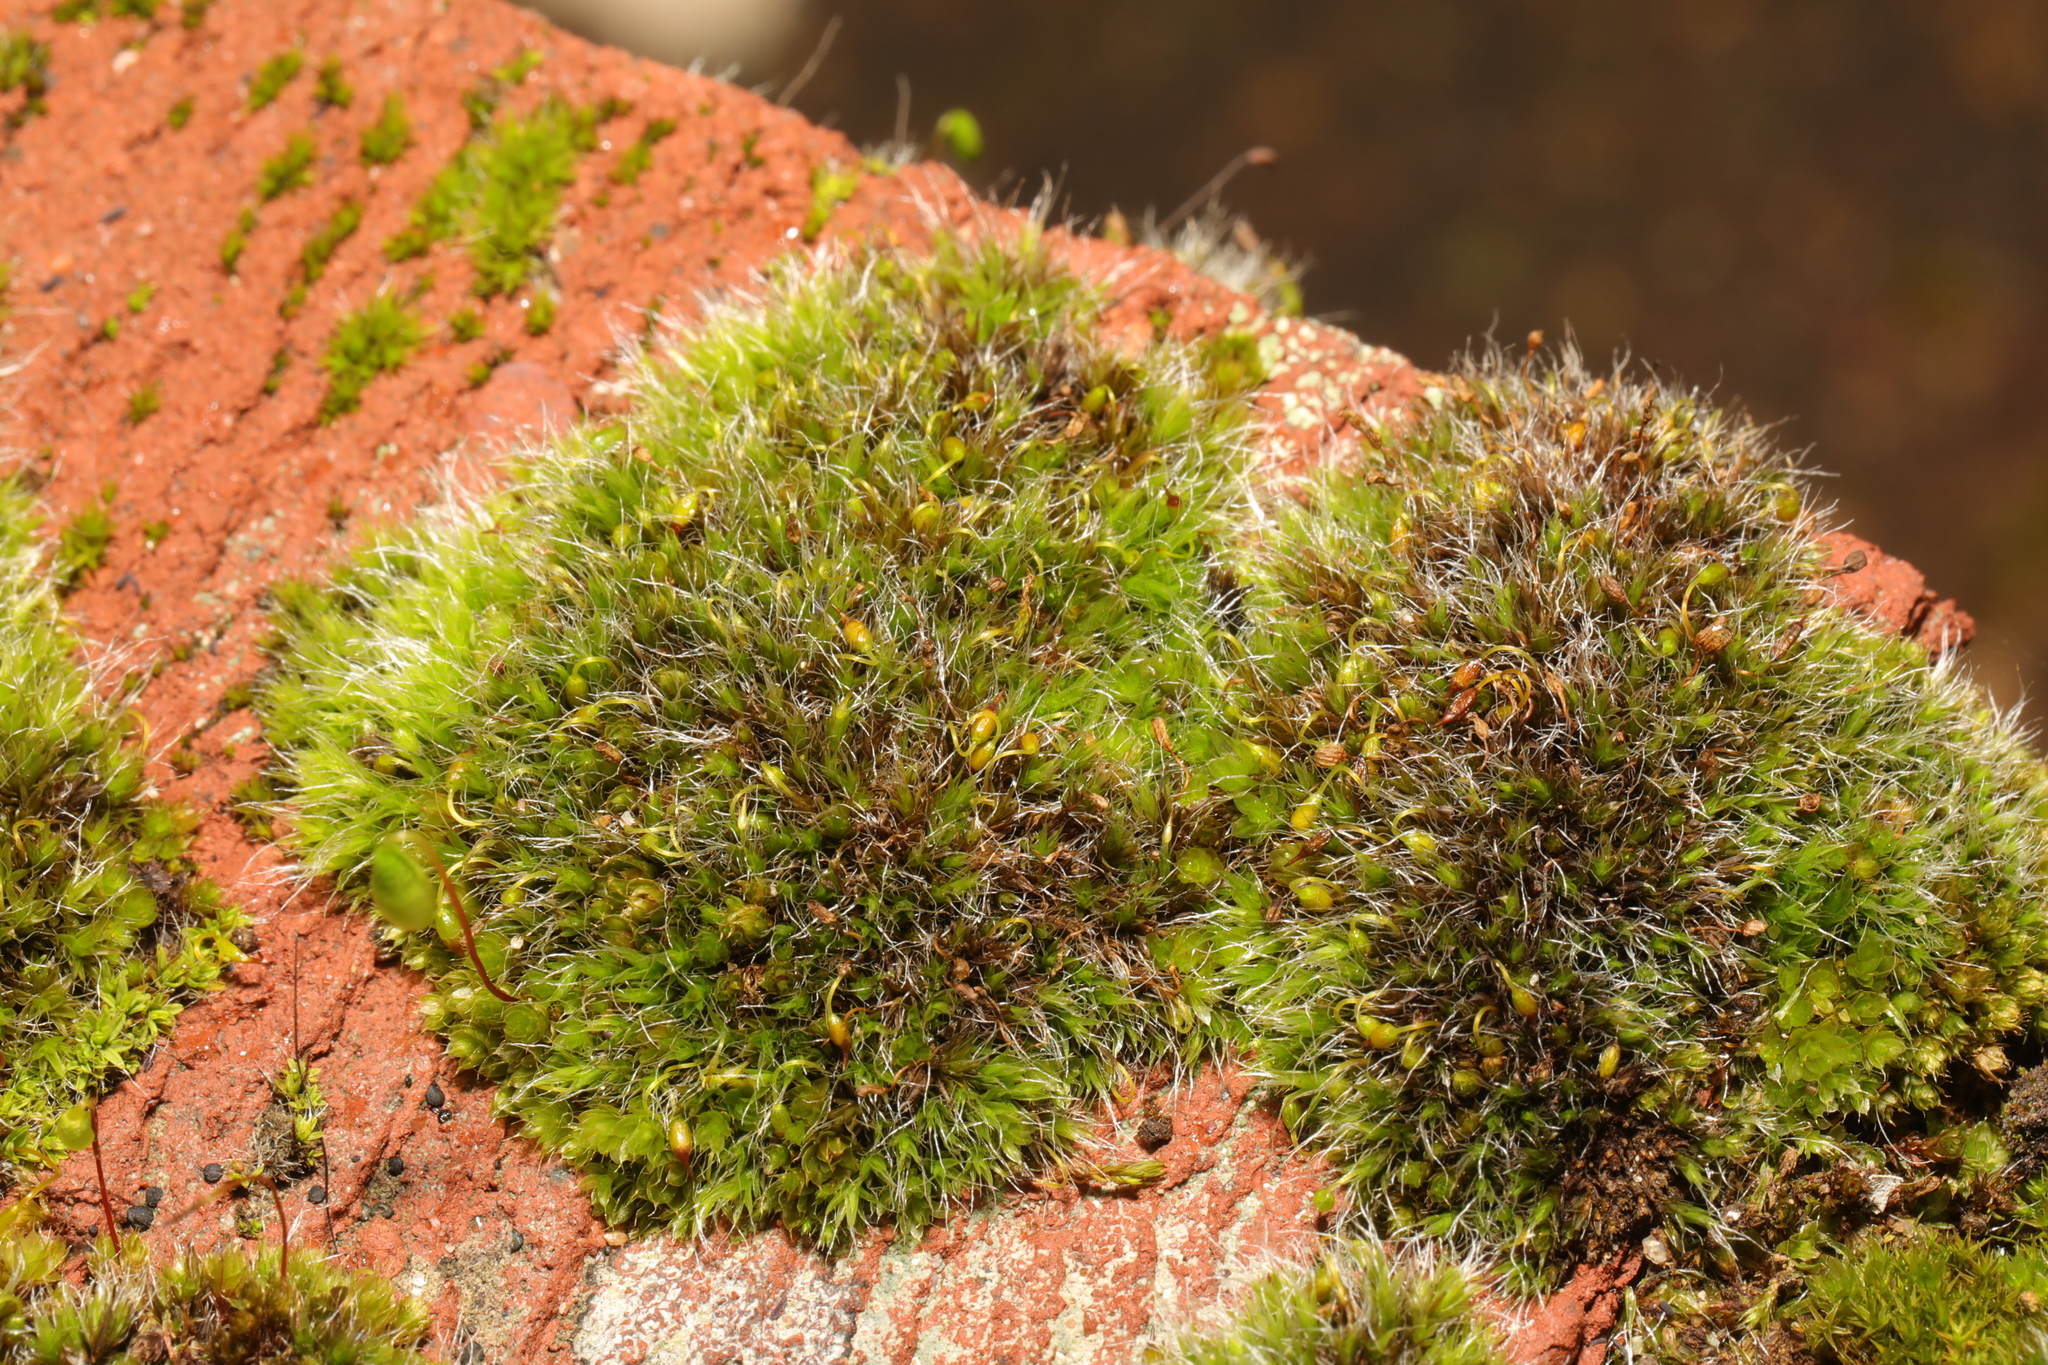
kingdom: Plantae
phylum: Bryophyta
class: Bryopsida
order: Grimmiales
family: Grimmiaceae
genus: Grimmia
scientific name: Grimmia pulvinata
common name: Grey-cushioned grimmia
